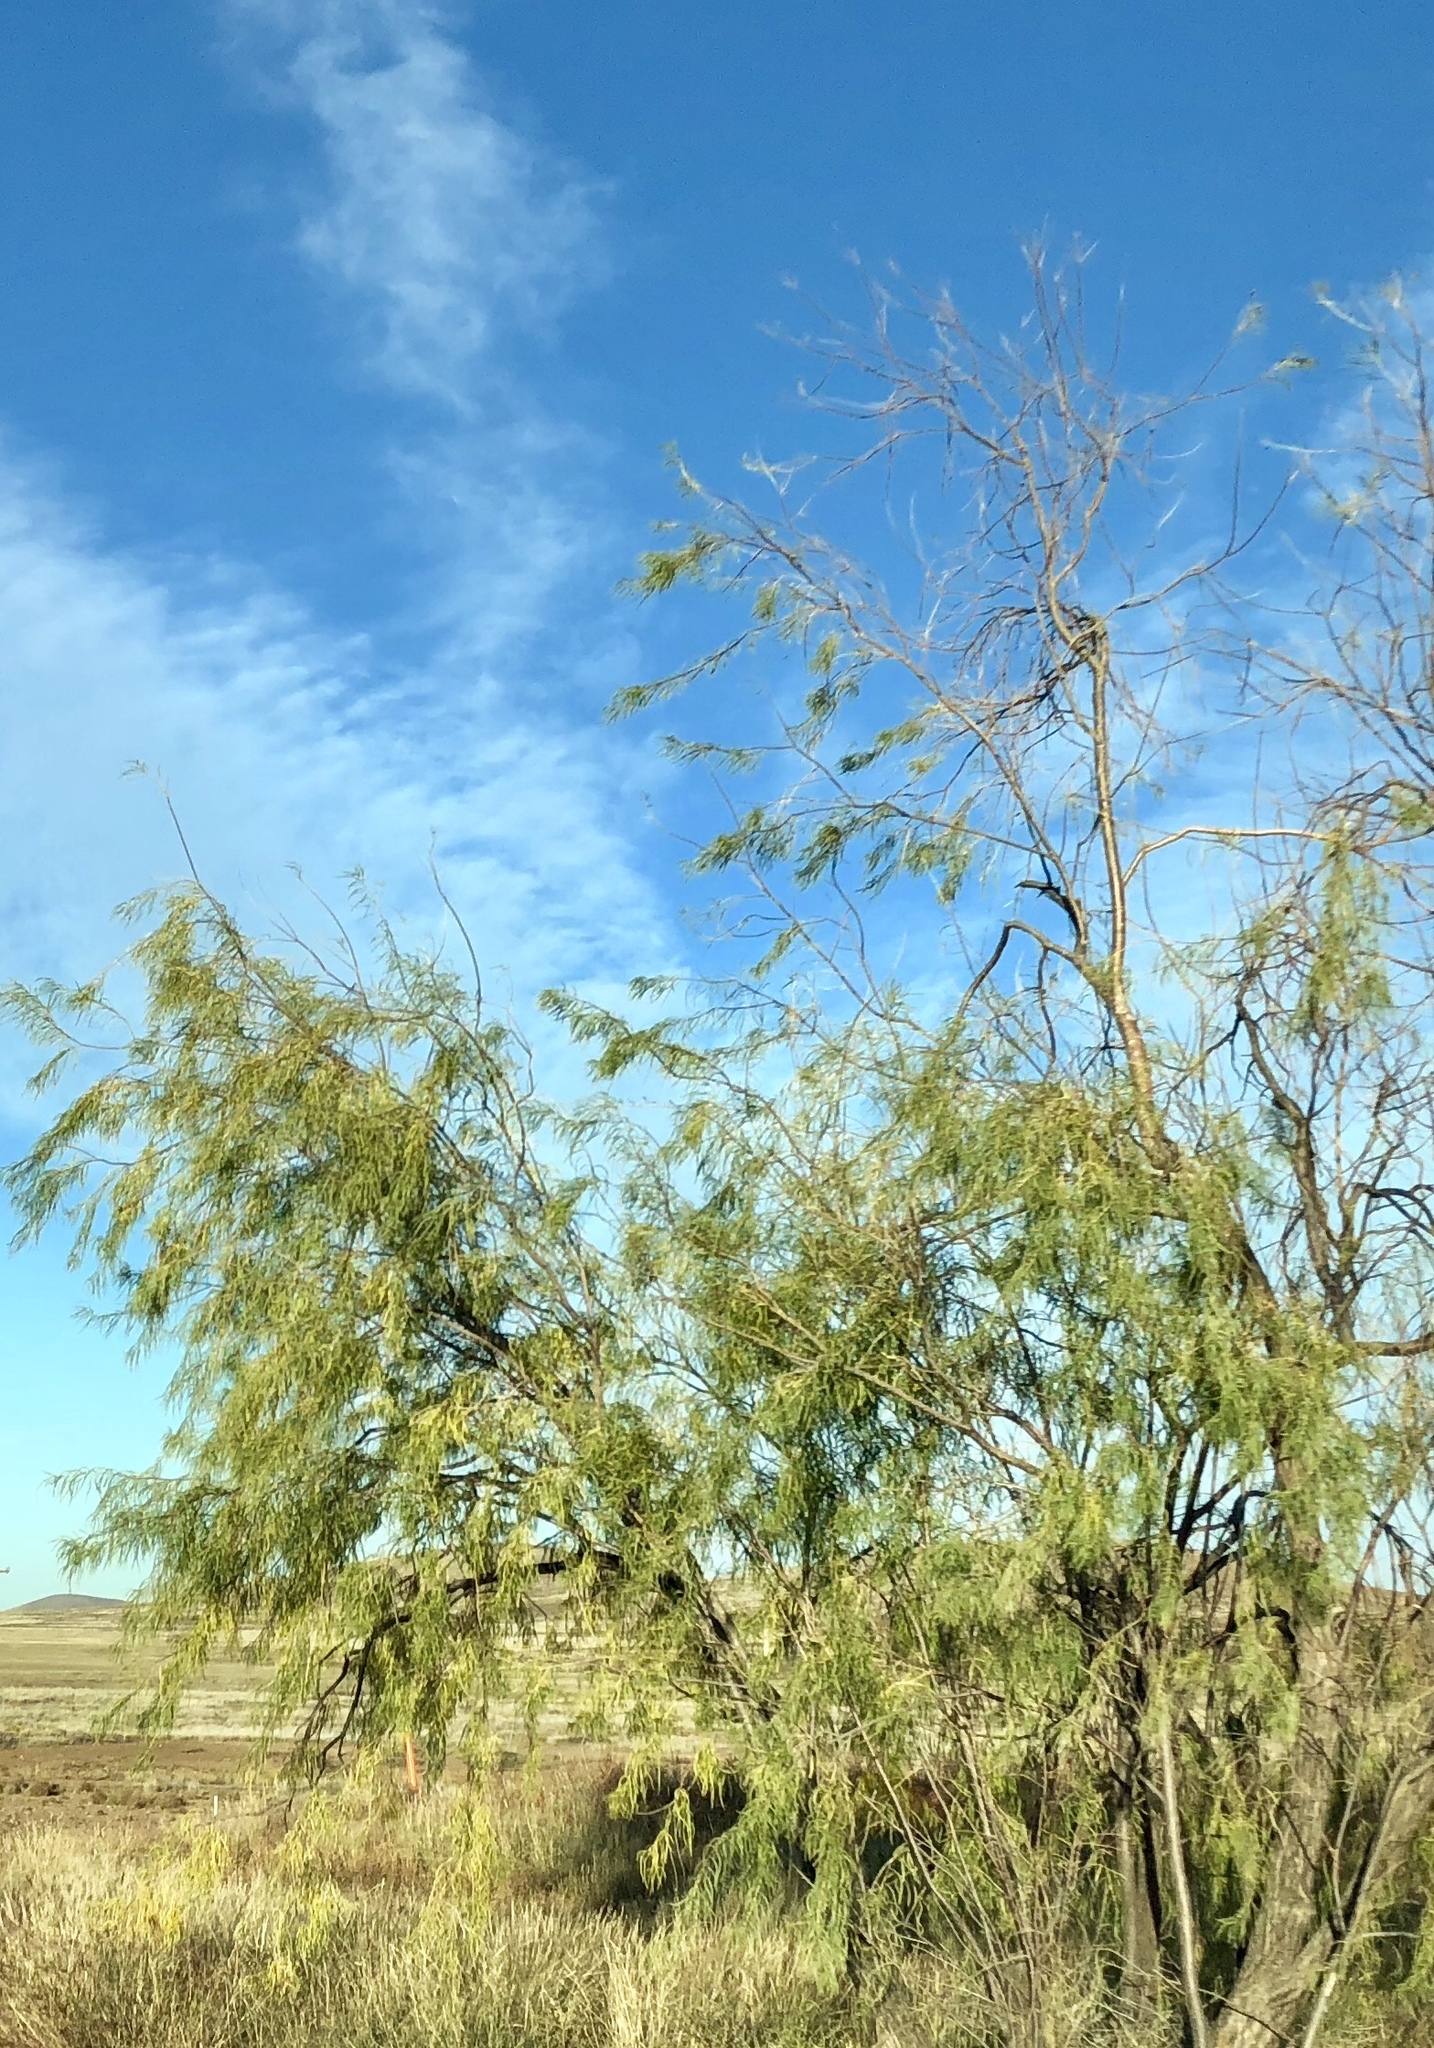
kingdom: Plantae
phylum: Tracheophyta
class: Magnoliopsida
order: Lamiales
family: Bignoniaceae
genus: Chilopsis
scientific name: Chilopsis linearis
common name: Desert-willow
